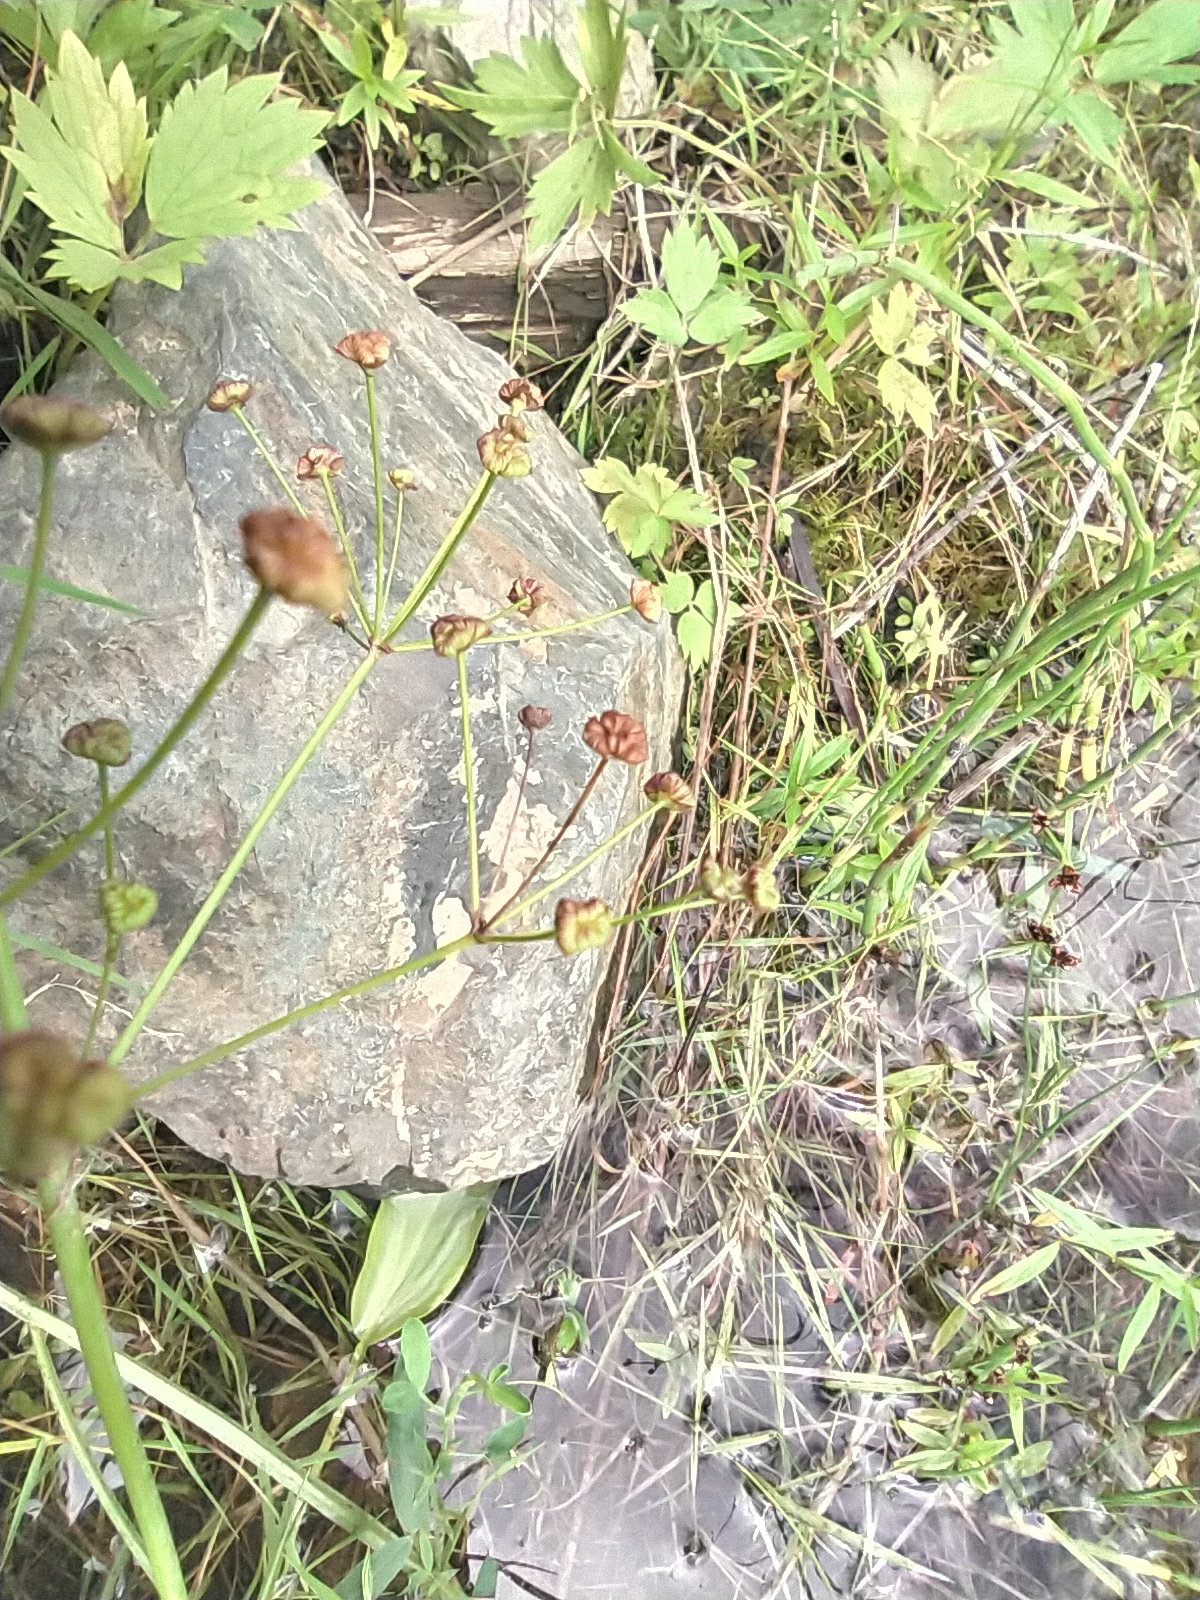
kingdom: Plantae
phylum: Tracheophyta
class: Liliopsida
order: Alismatales
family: Alismataceae
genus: Alisma
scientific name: Alisma plantago-aquatica
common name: Water-plantain
